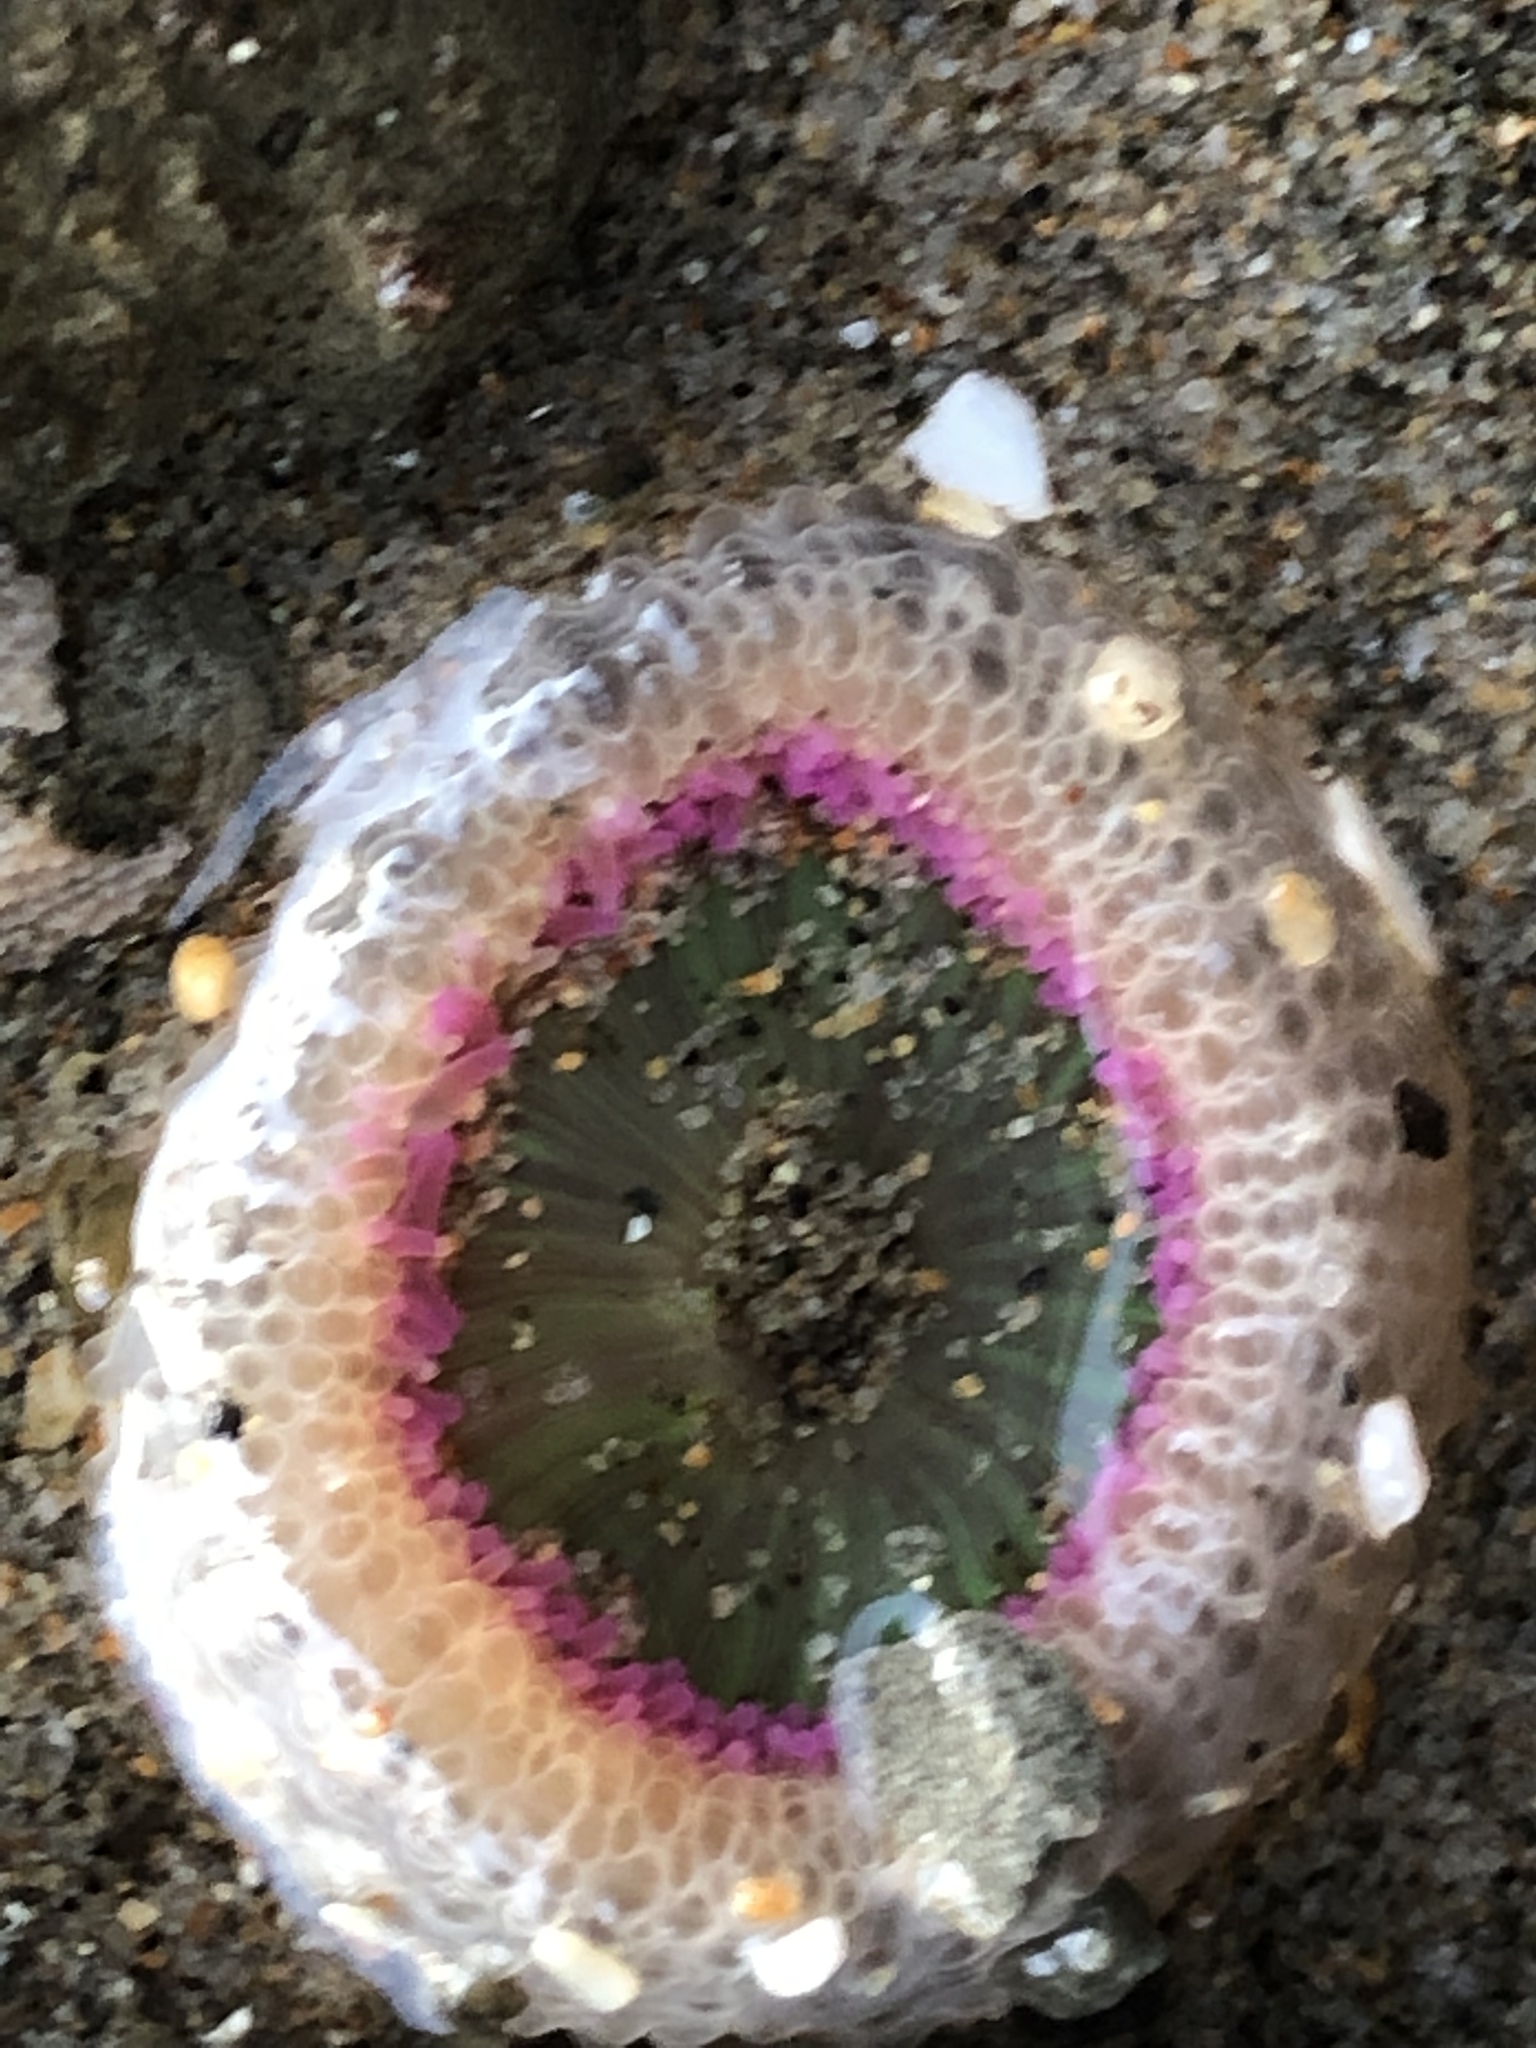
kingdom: Animalia
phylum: Cnidaria
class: Anthozoa
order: Actiniaria
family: Actiniidae
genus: Anthopleura
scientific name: Anthopleura elegantissima
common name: Clonal anemone
